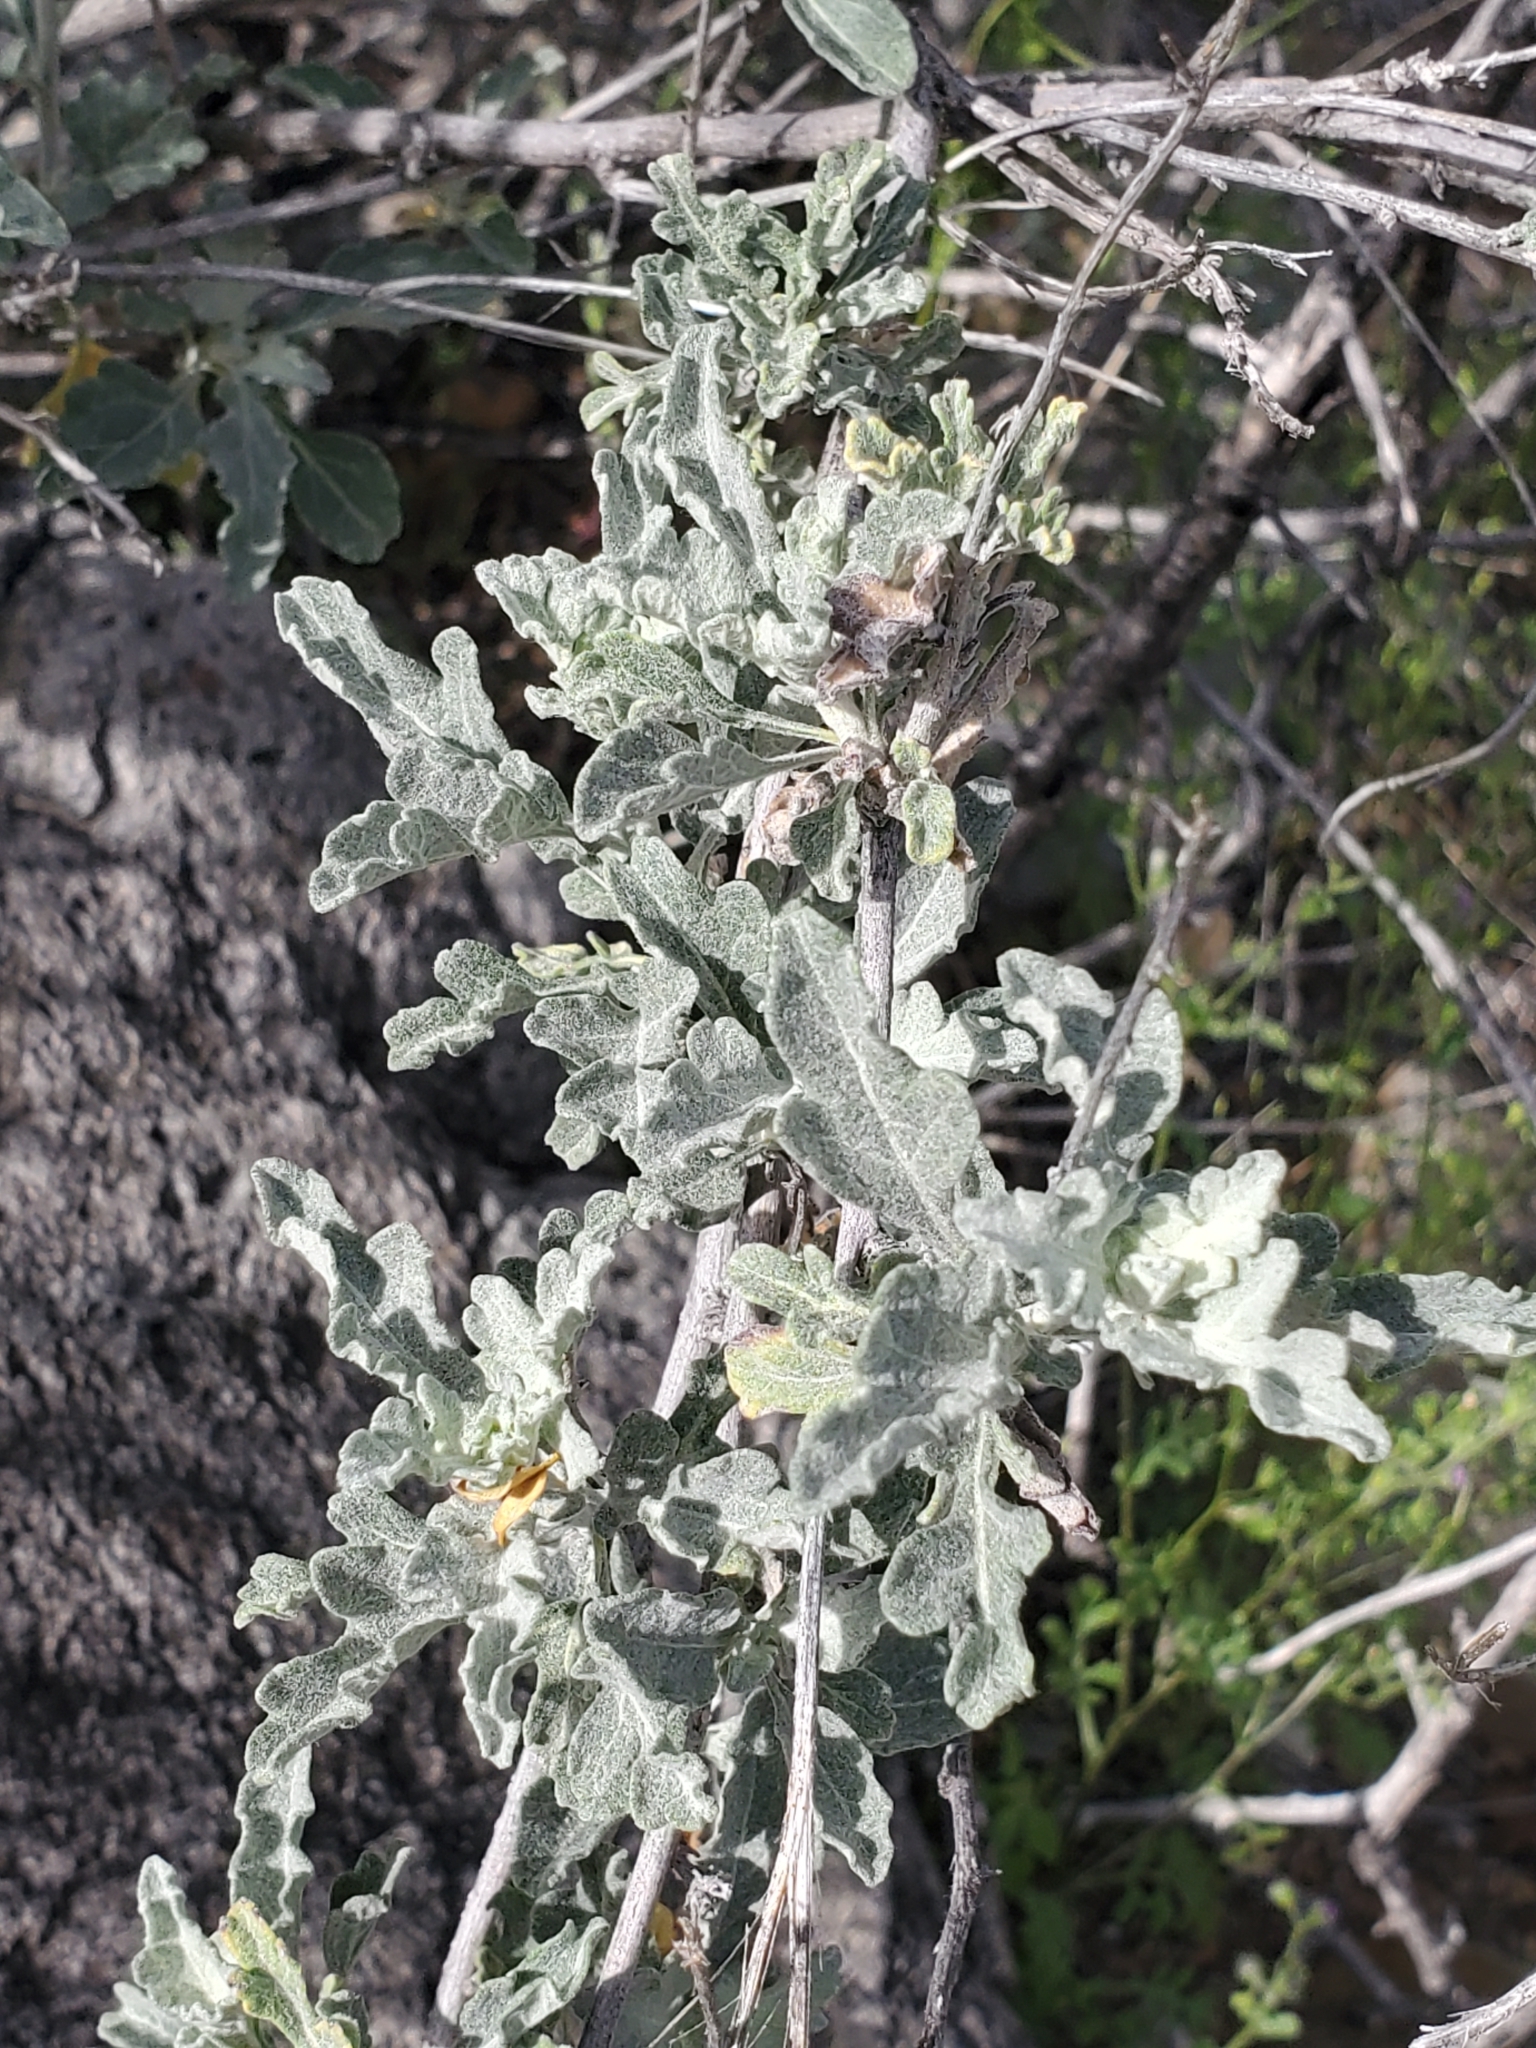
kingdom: Plantae
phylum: Tracheophyta
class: Magnoliopsida
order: Asterales
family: Asteraceae
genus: Parthenium
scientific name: Parthenium incanum
